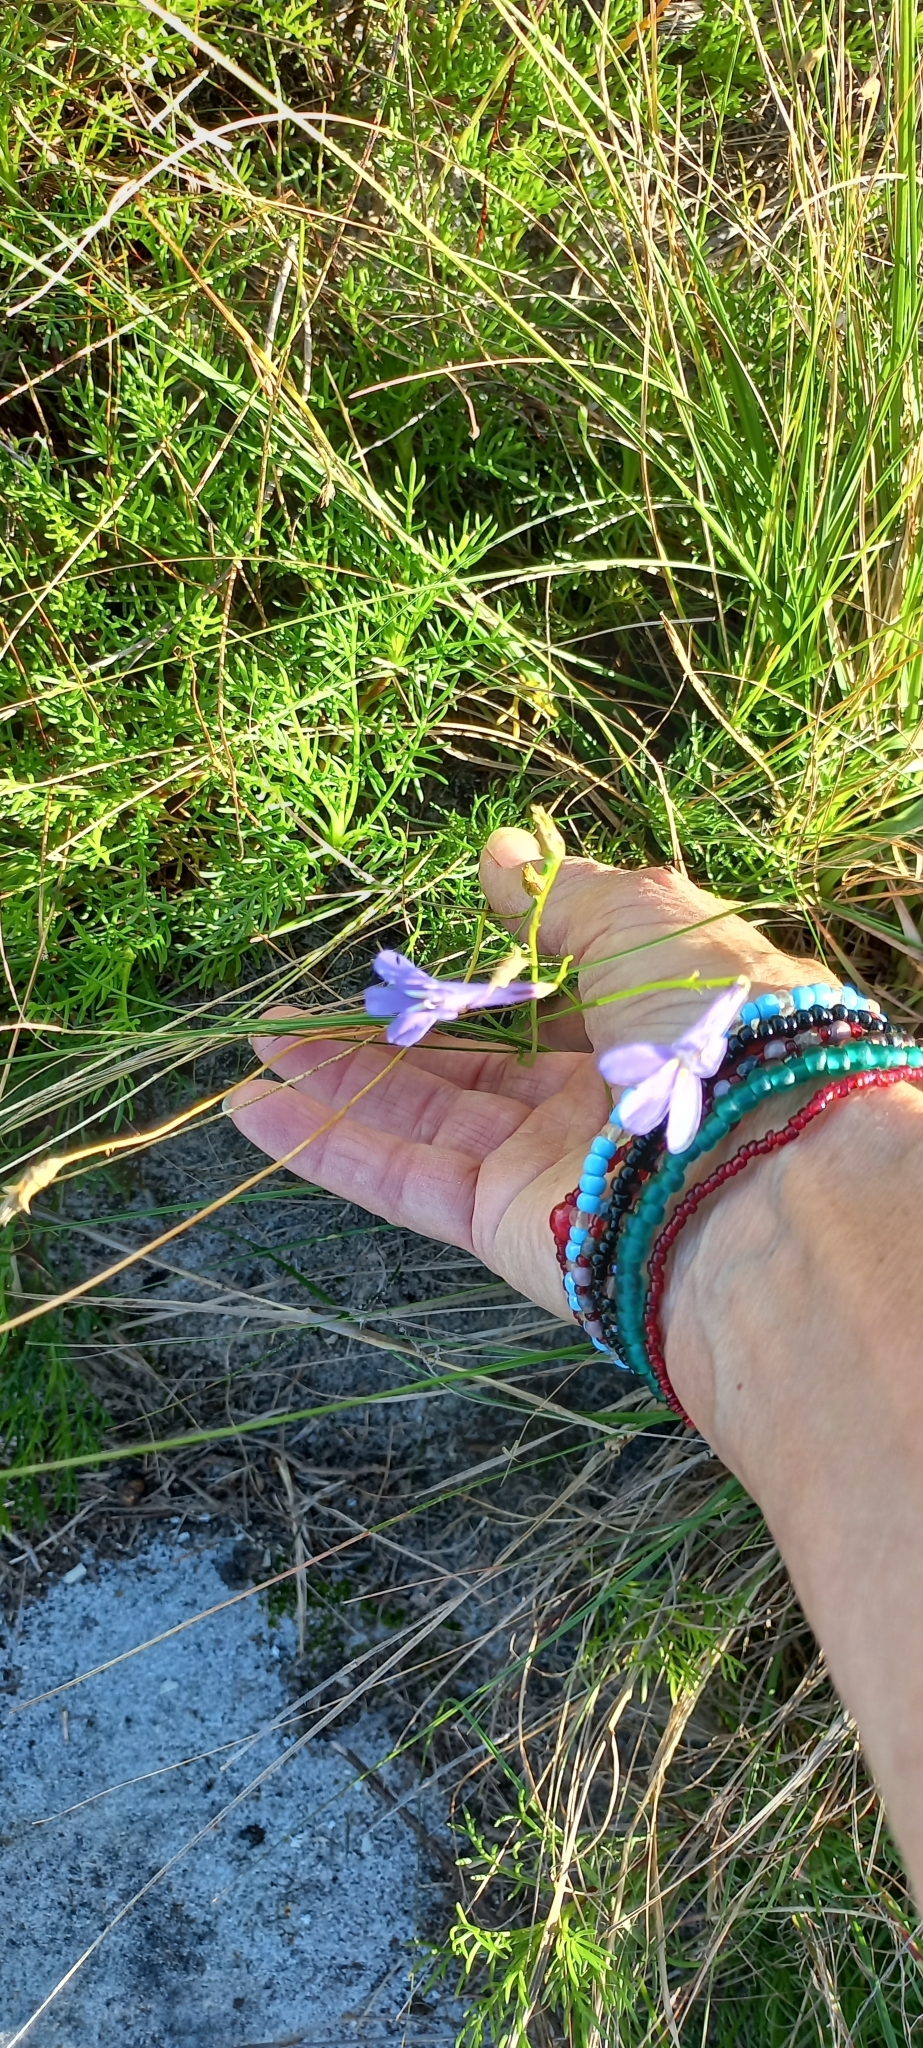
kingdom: Plantae
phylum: Tracheophyta
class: Magnoliopsida
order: Asterales
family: Campanulaceae
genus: Lobelia
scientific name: Lobelia coronopifolia
